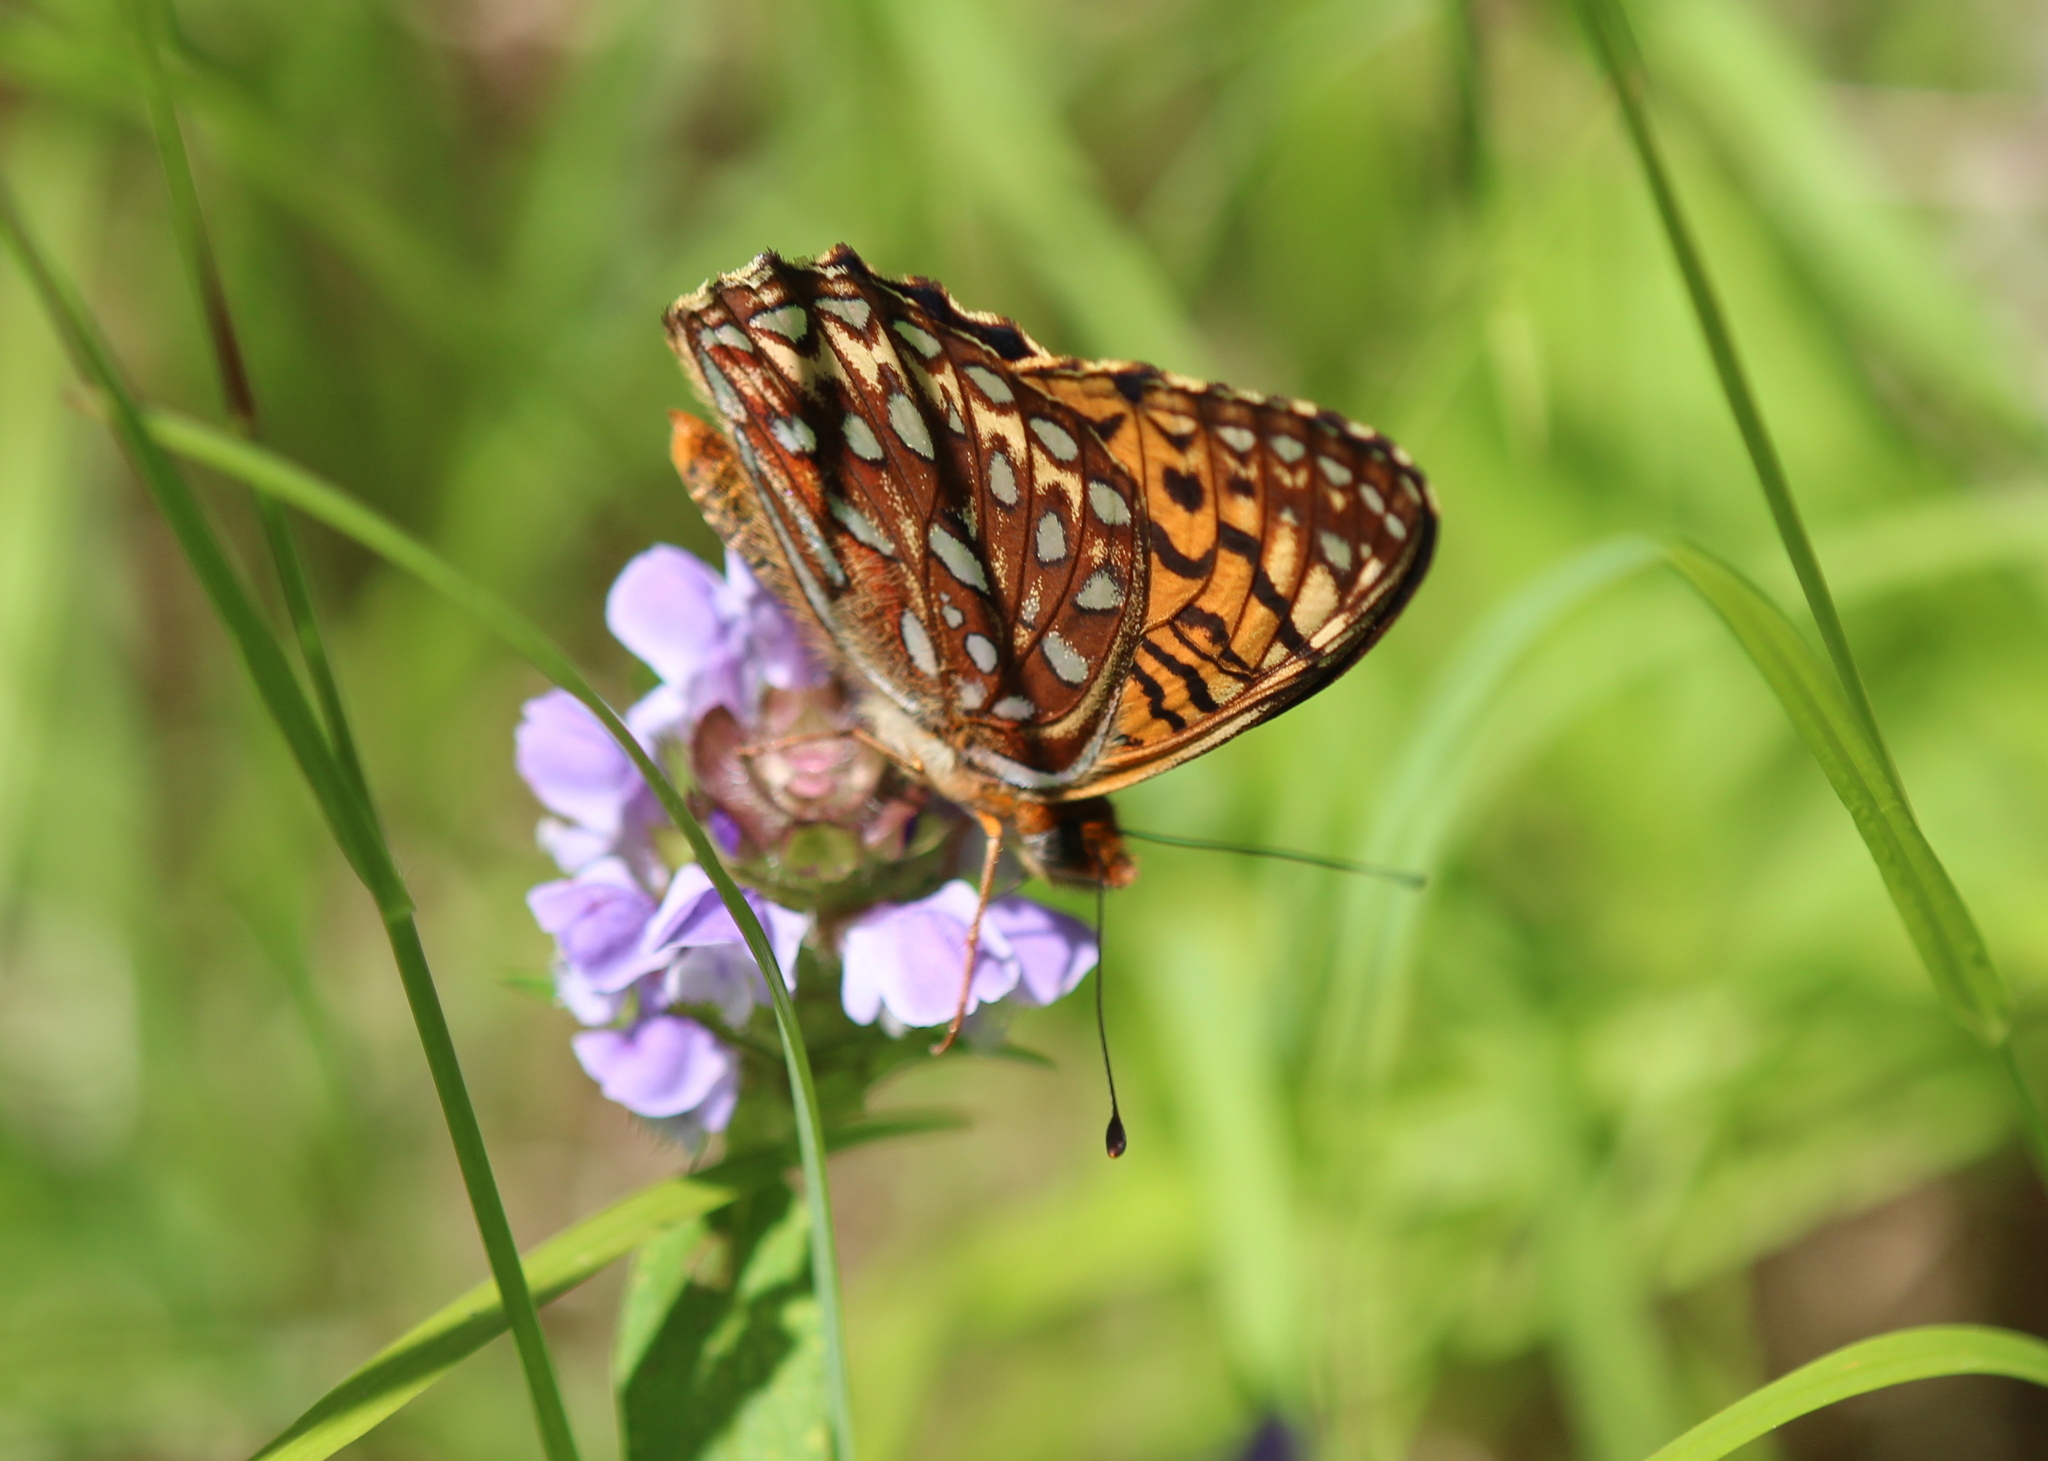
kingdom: Animalia
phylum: Arthropoda
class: Insecta
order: Lepidoptera
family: Nymphalidae
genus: Speyeria
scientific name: Speyeria atlantis
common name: Atlantis fritillary
